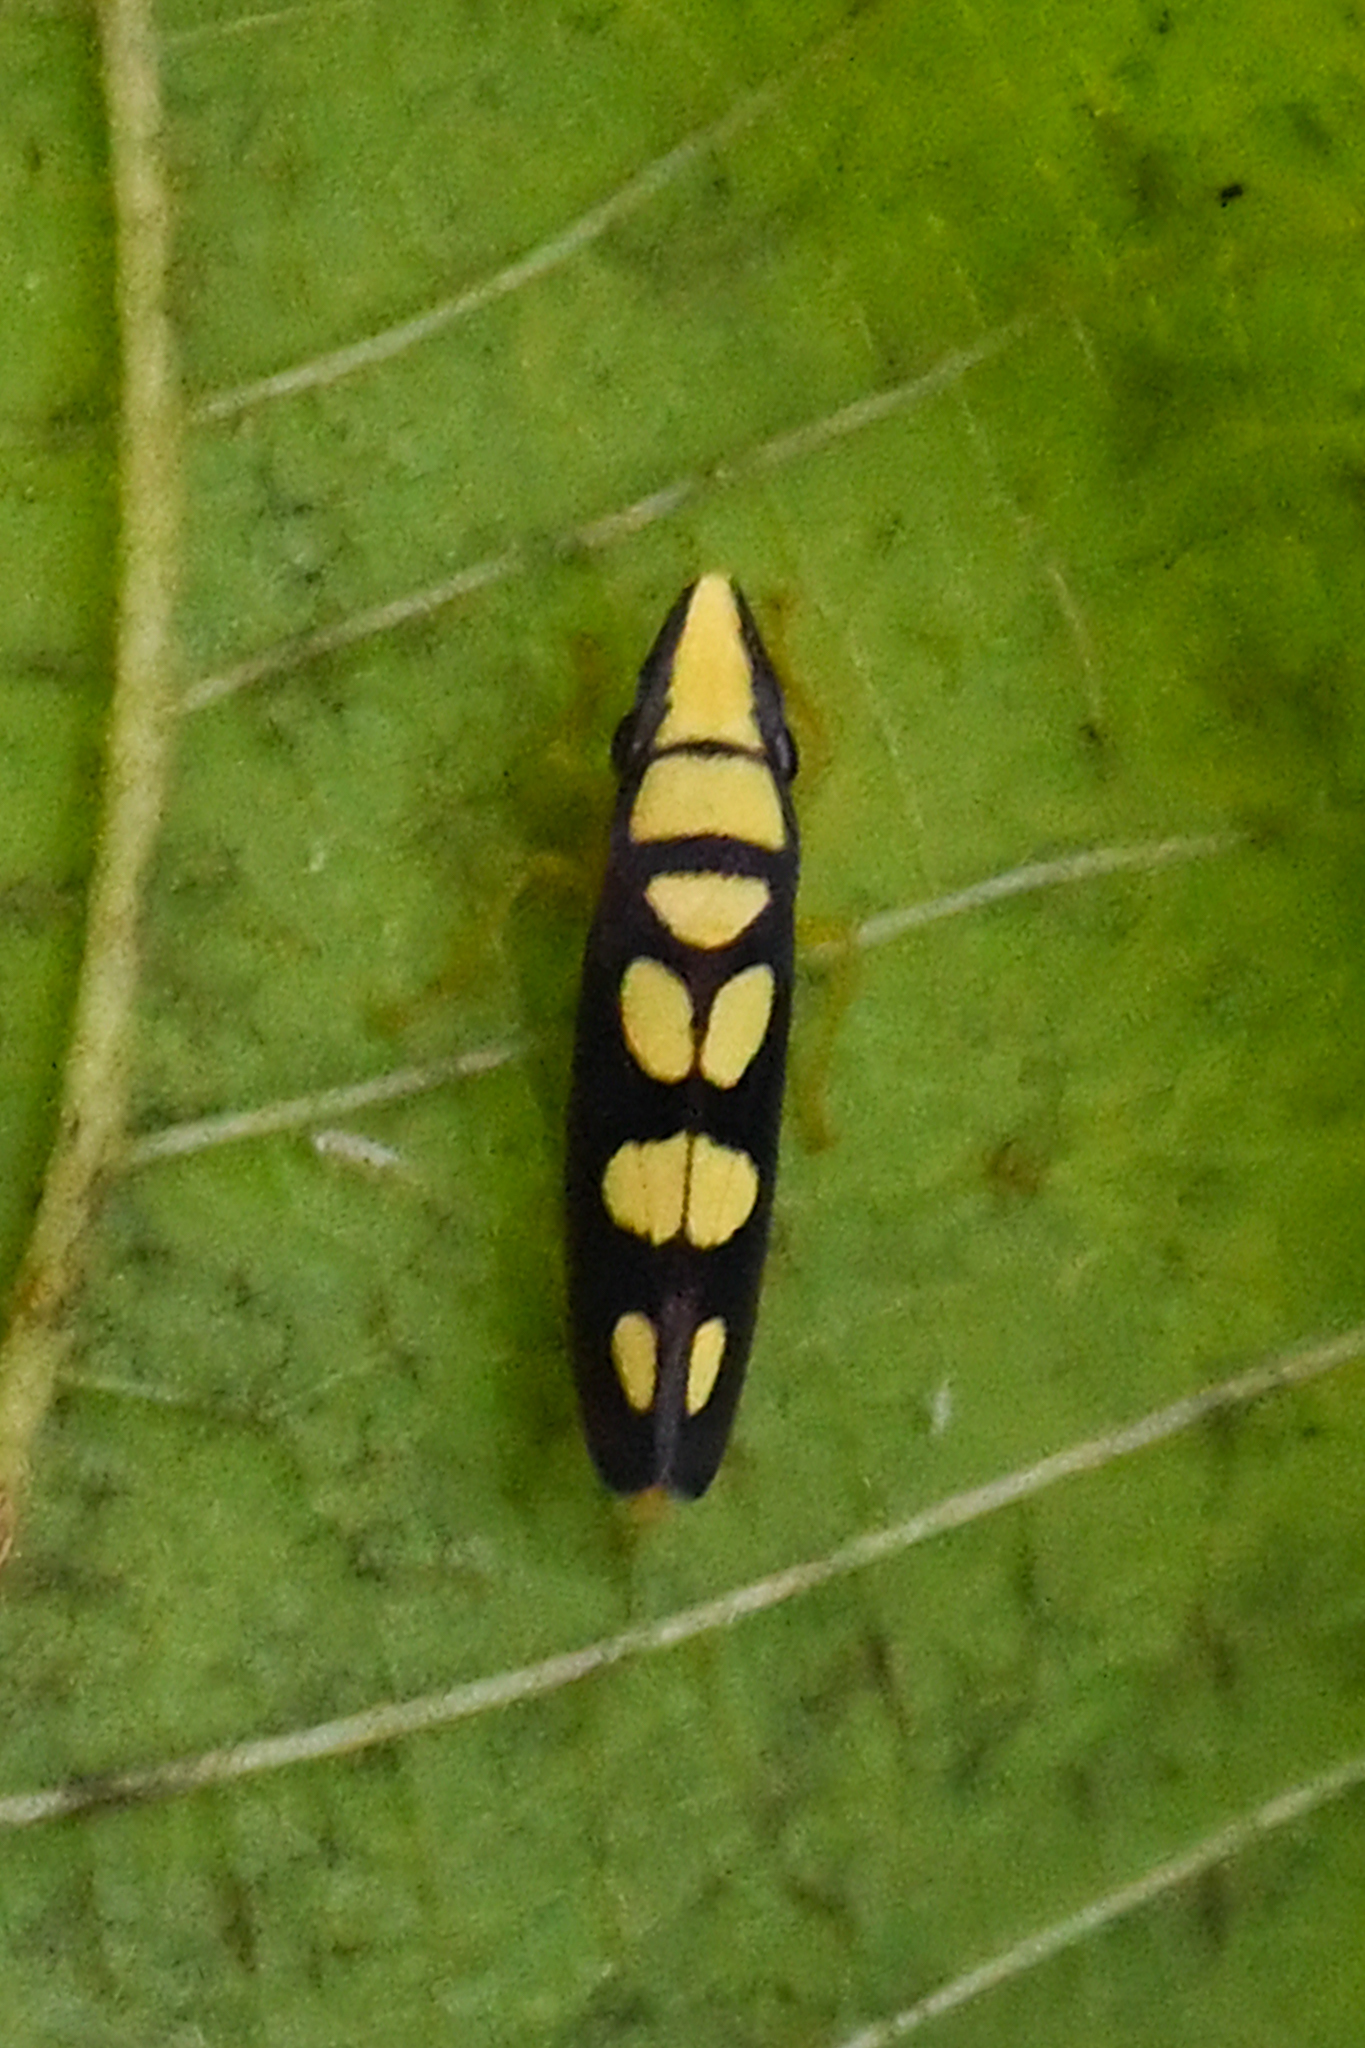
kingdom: Animalia
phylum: Arthropoda
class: Insecta
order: Hemiptera
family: Cicadellidae
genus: Platygonia
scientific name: Platygonia spatulata
